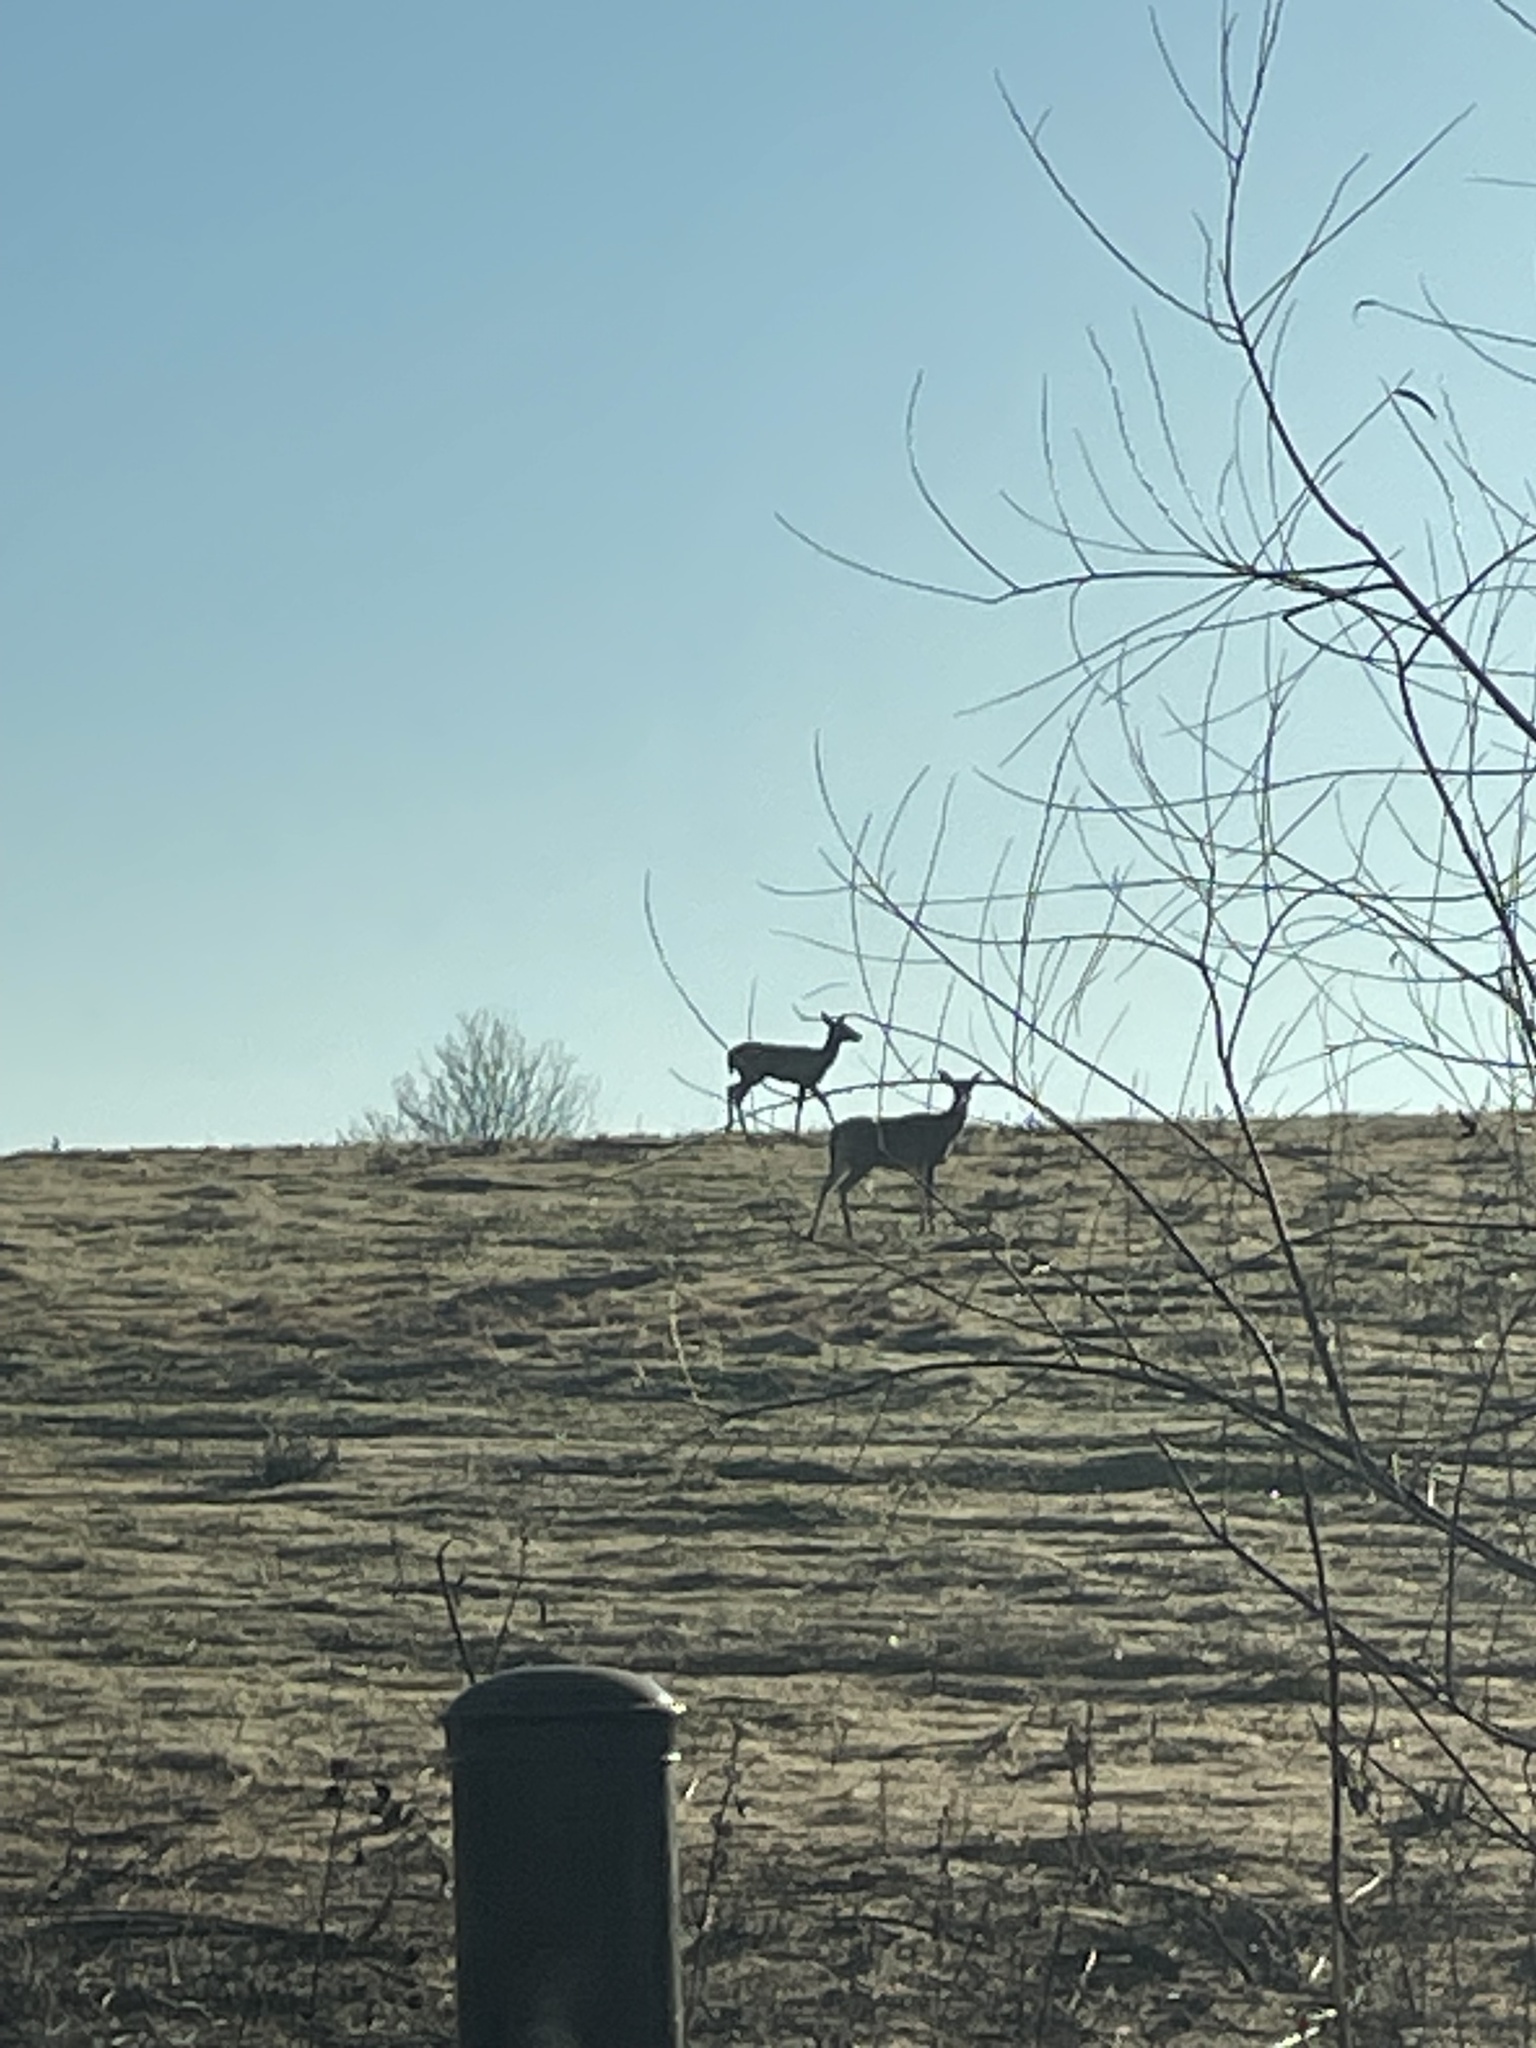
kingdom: Animalia
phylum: Chordata
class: Mammalia
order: Artiodactyla
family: Cervidae
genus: Odocoileus
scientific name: Odocoileus virginianus
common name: White-tailed deer
